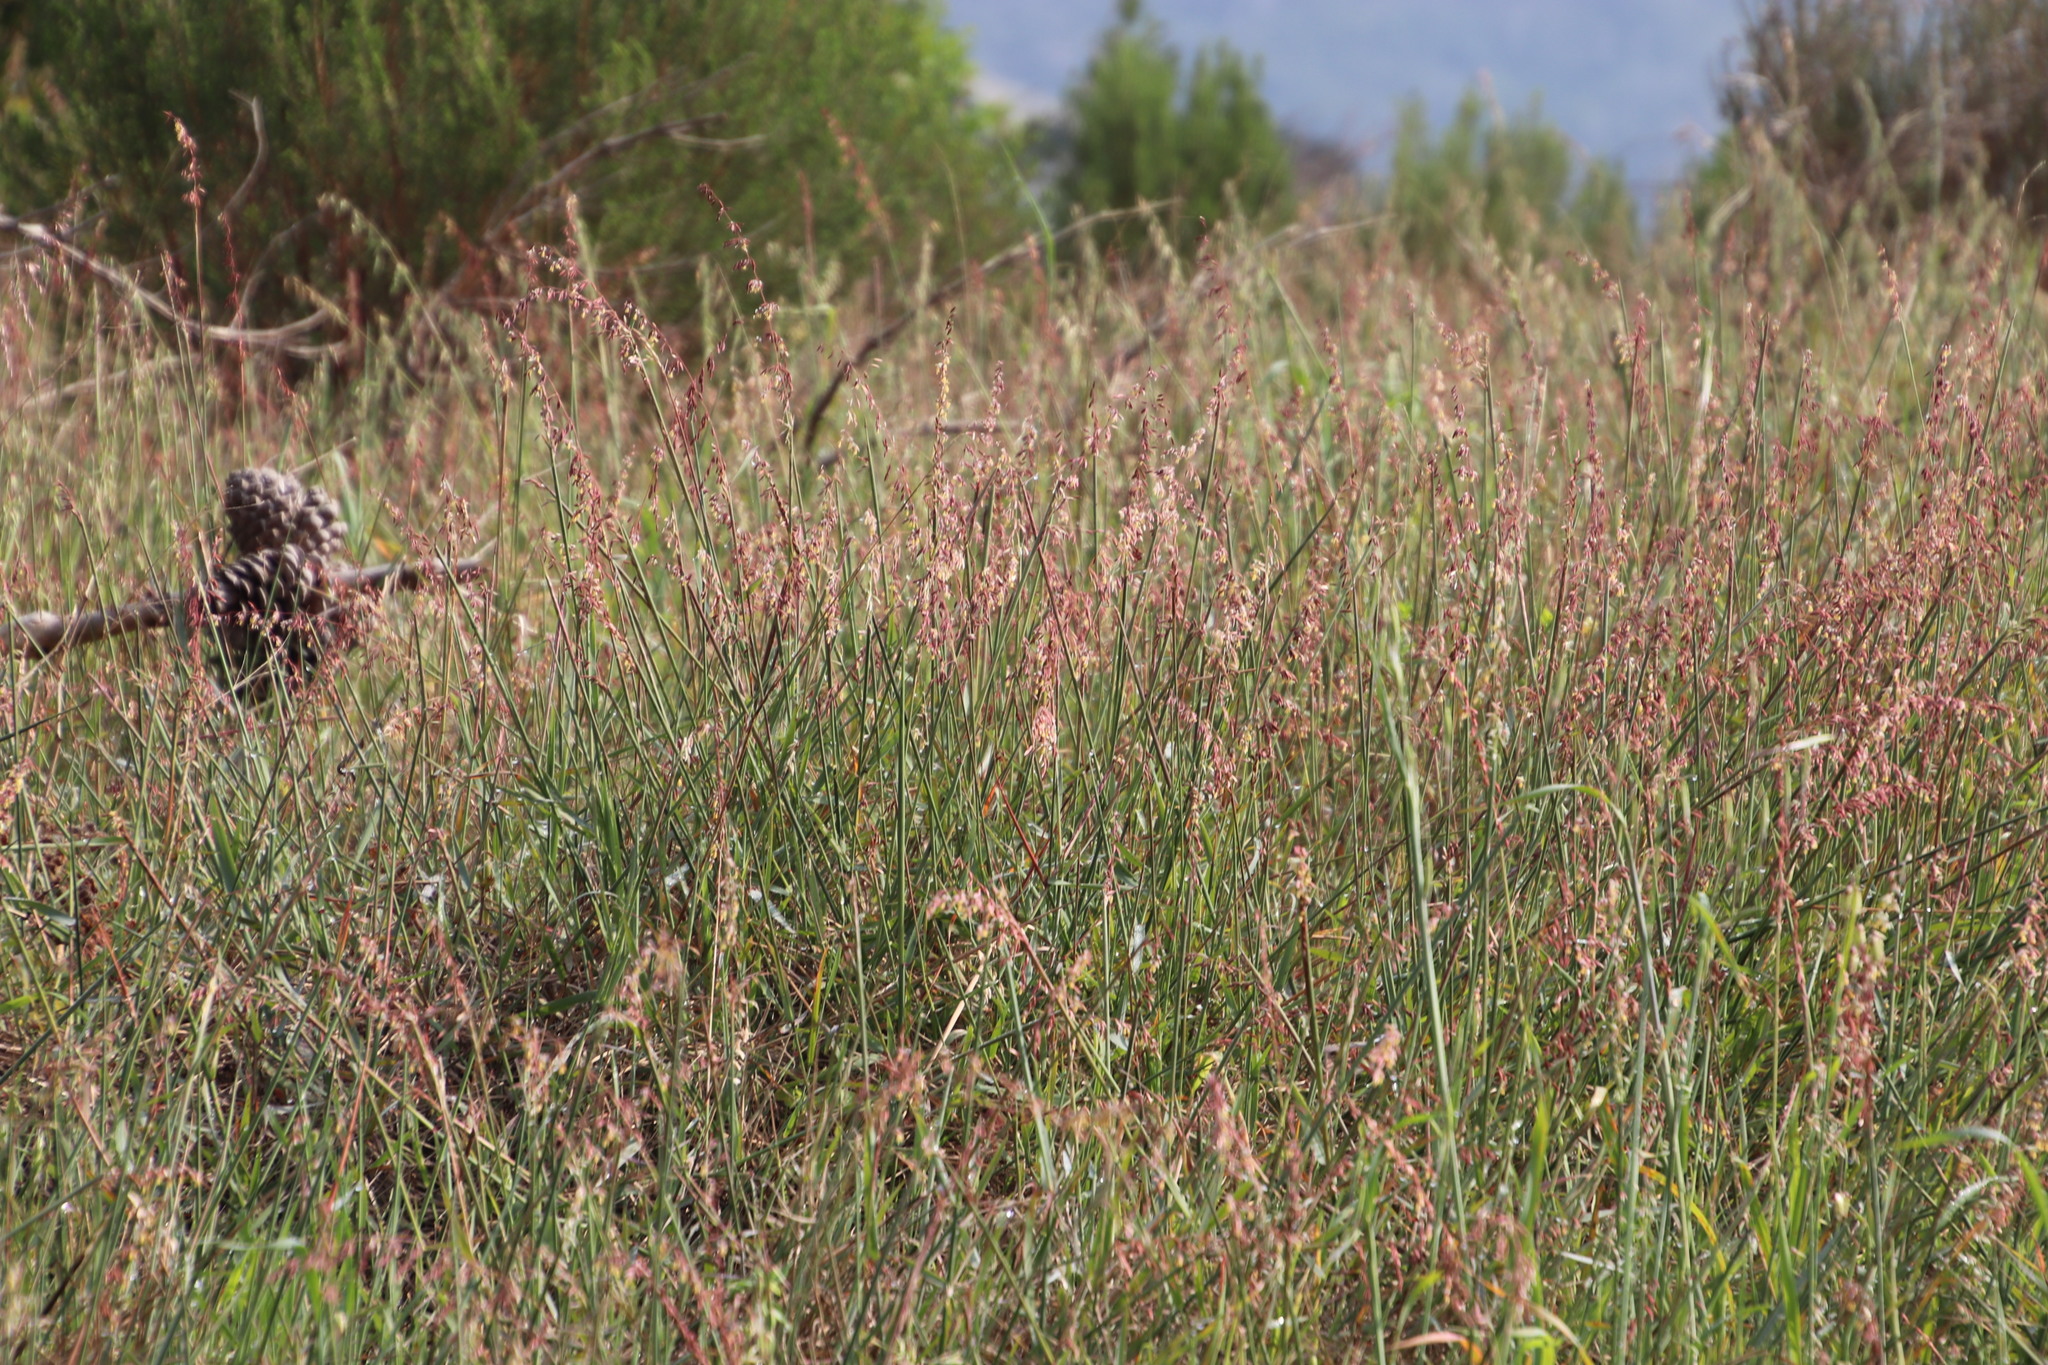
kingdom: Plantae
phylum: Tracheophyta
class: Liliopsida
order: Poales
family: Poaceae
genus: Ehrharta
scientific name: Ehrharta calycina
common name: Perennial veldtgrass
